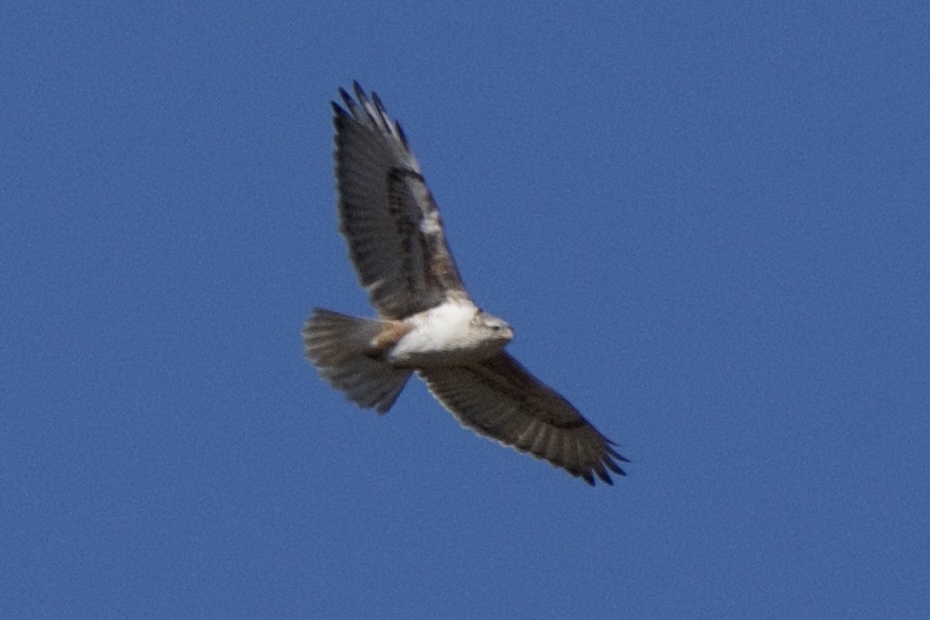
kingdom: Animalia
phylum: Chordata
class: Aves
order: Accipitriformes
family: Accipitridae
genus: Buteo
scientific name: Buteo regalis
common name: Ferruginous hawk
